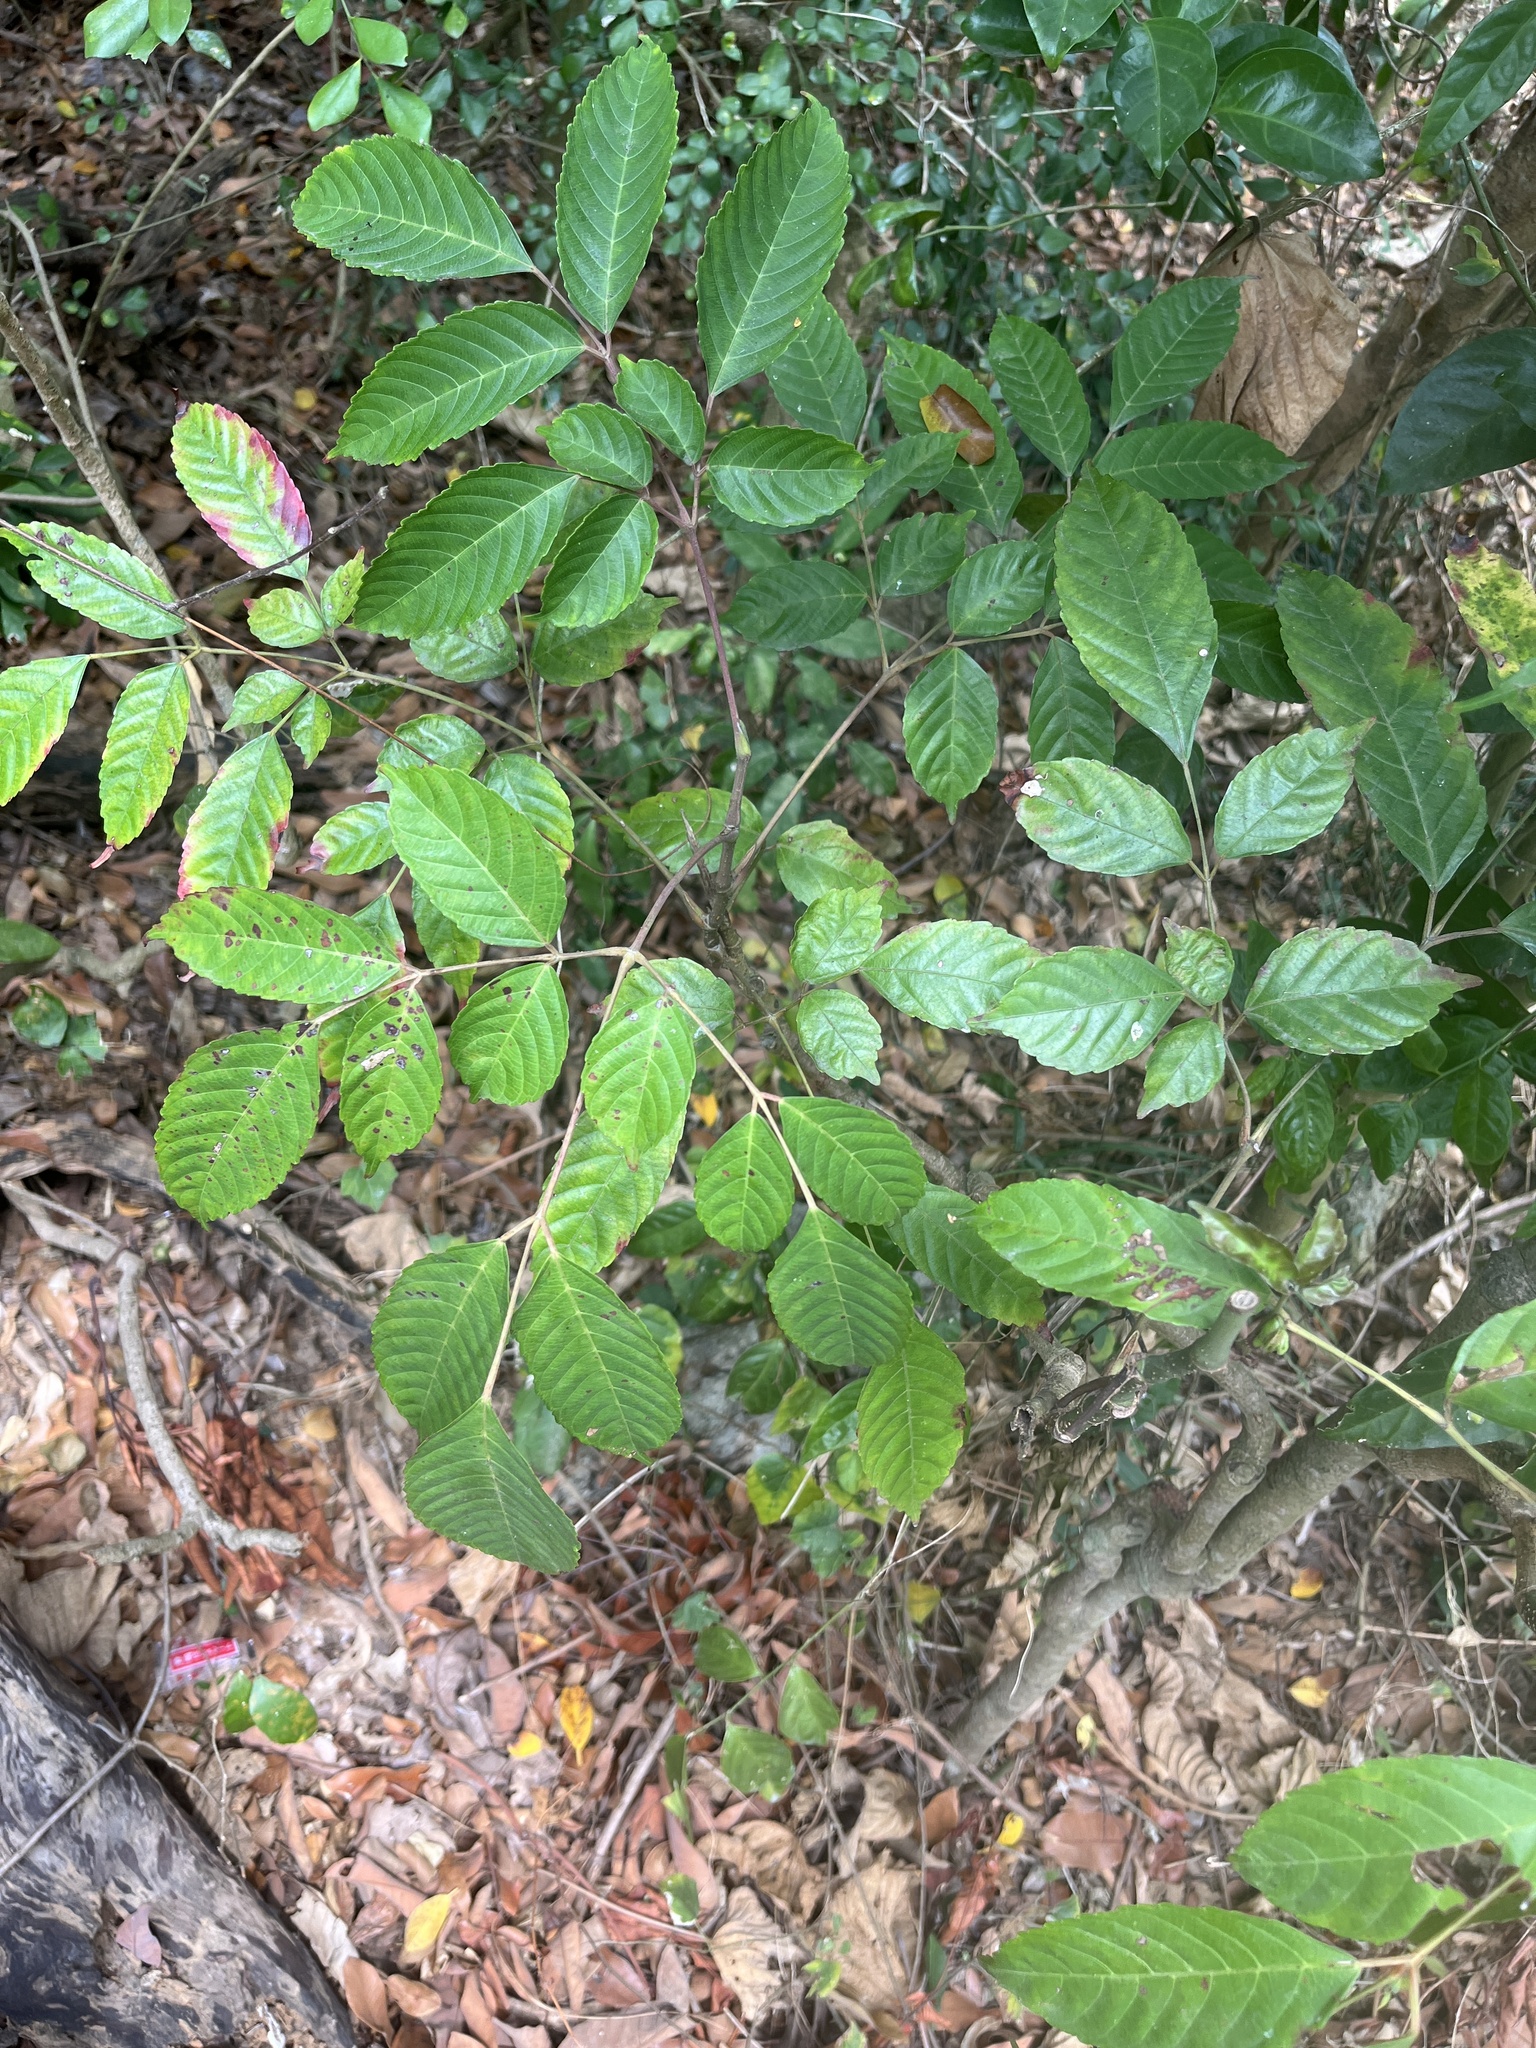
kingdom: Plantae
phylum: Tracheophyta
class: Magnoliopsida
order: Vitales
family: Vitaceae
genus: Leea
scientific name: Leea guineensis
